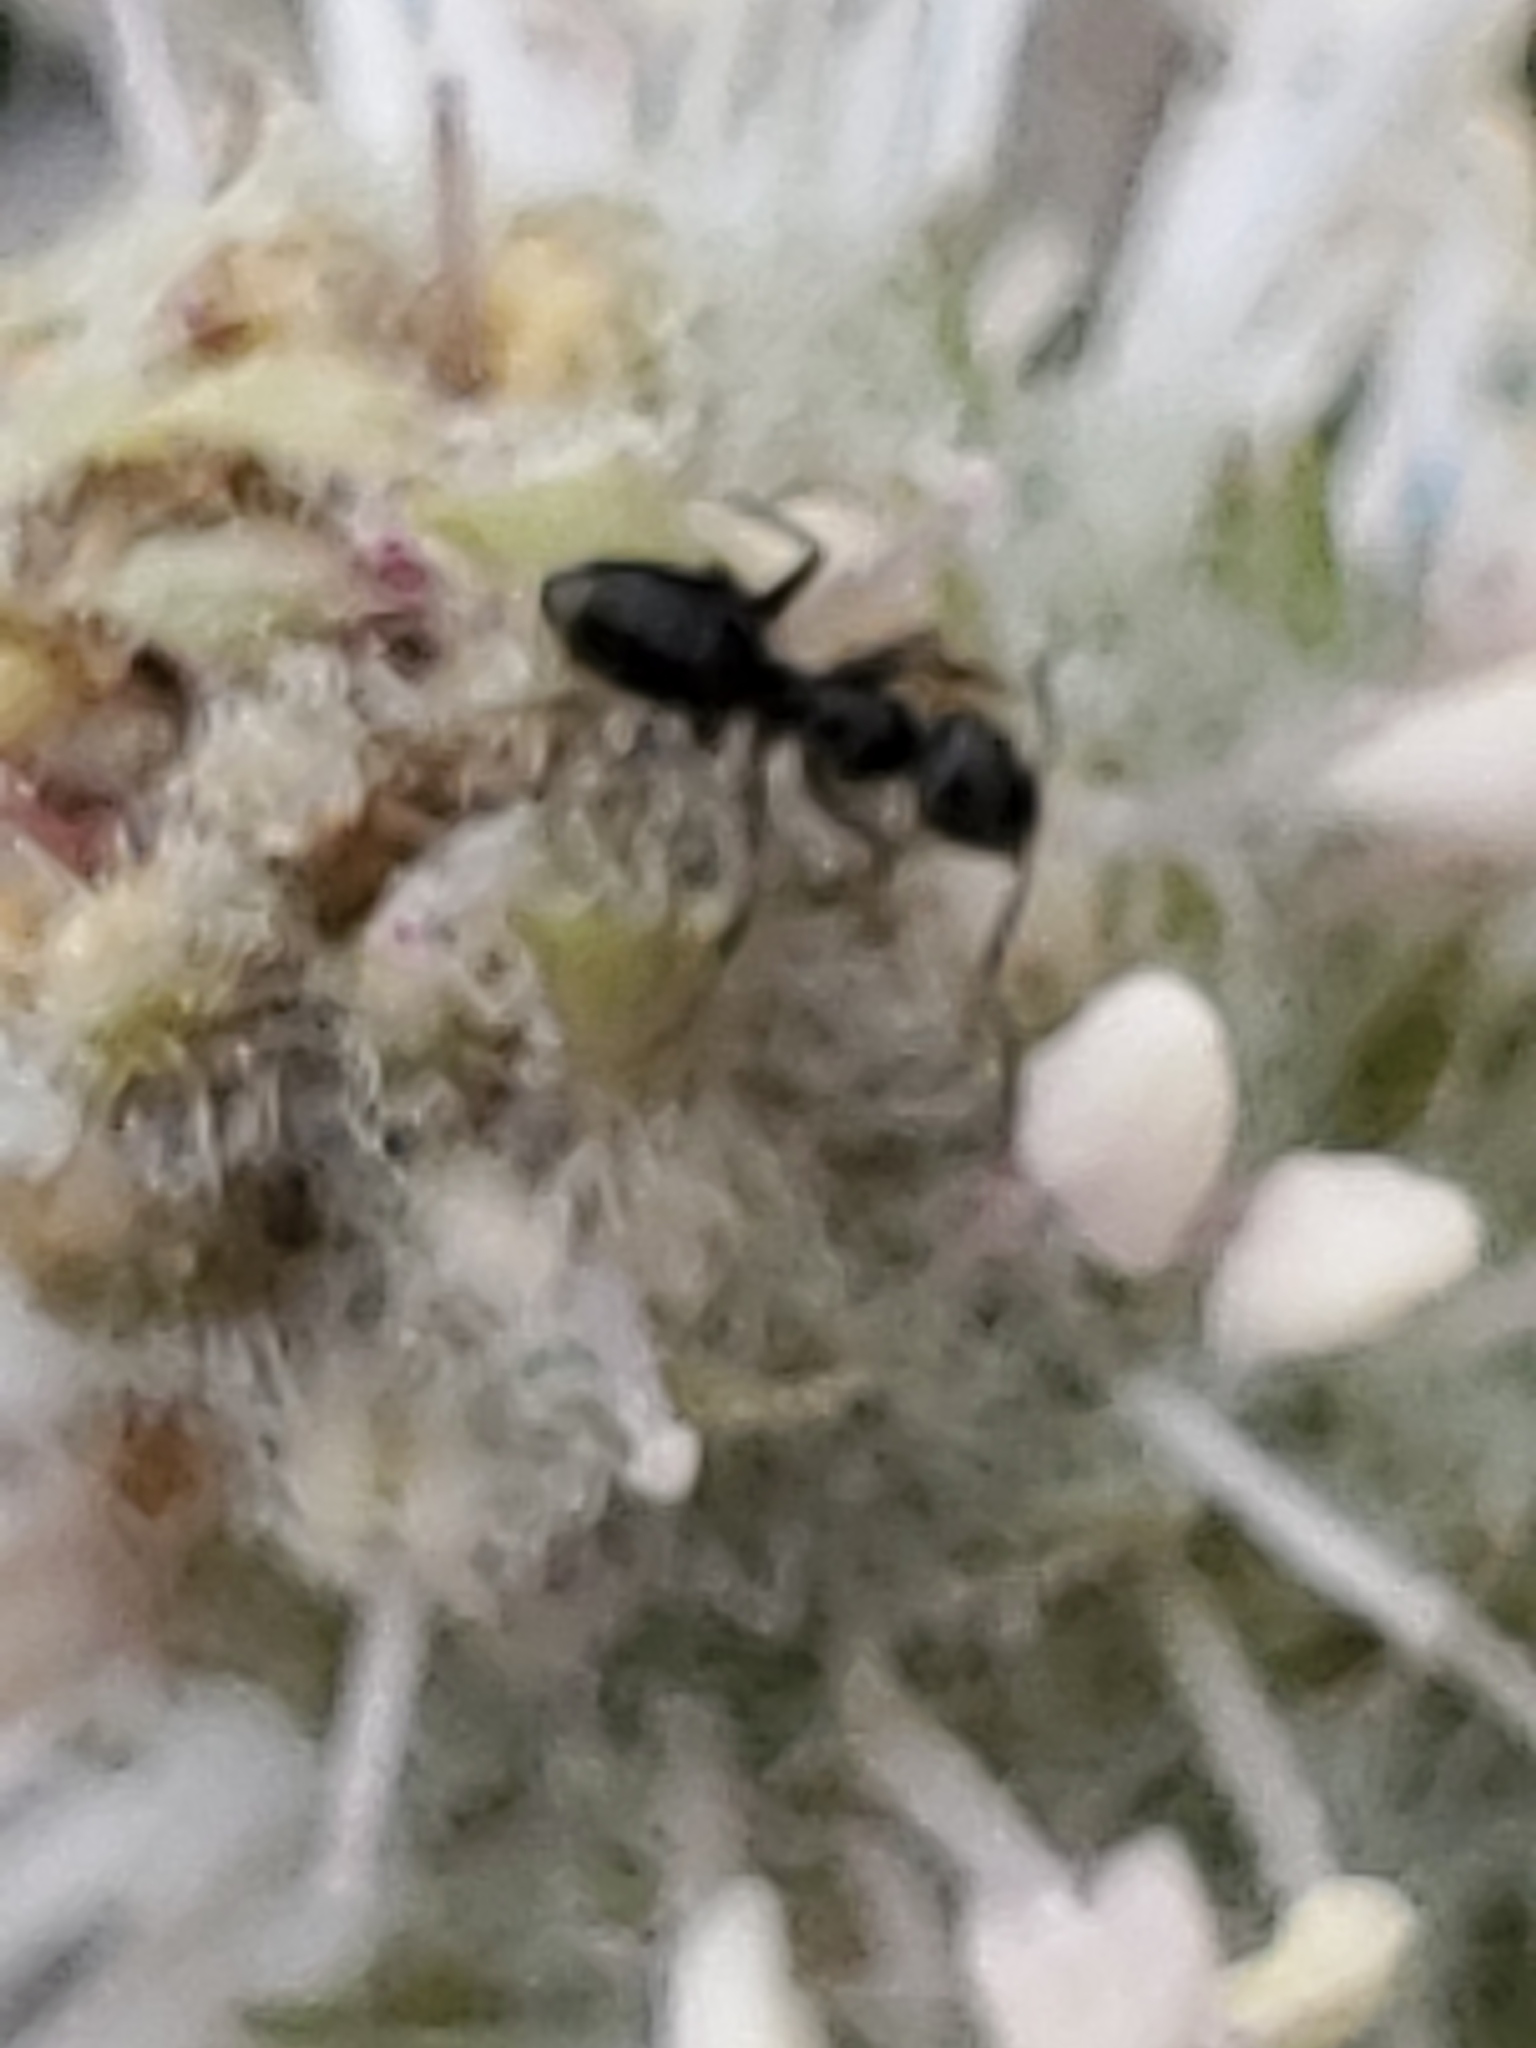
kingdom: Animalia
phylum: Arthropoda
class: Insecta
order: Hymenoptera
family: Formicidae
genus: Tapinoma
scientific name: Tapinoma sessile
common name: Odorous house ant
